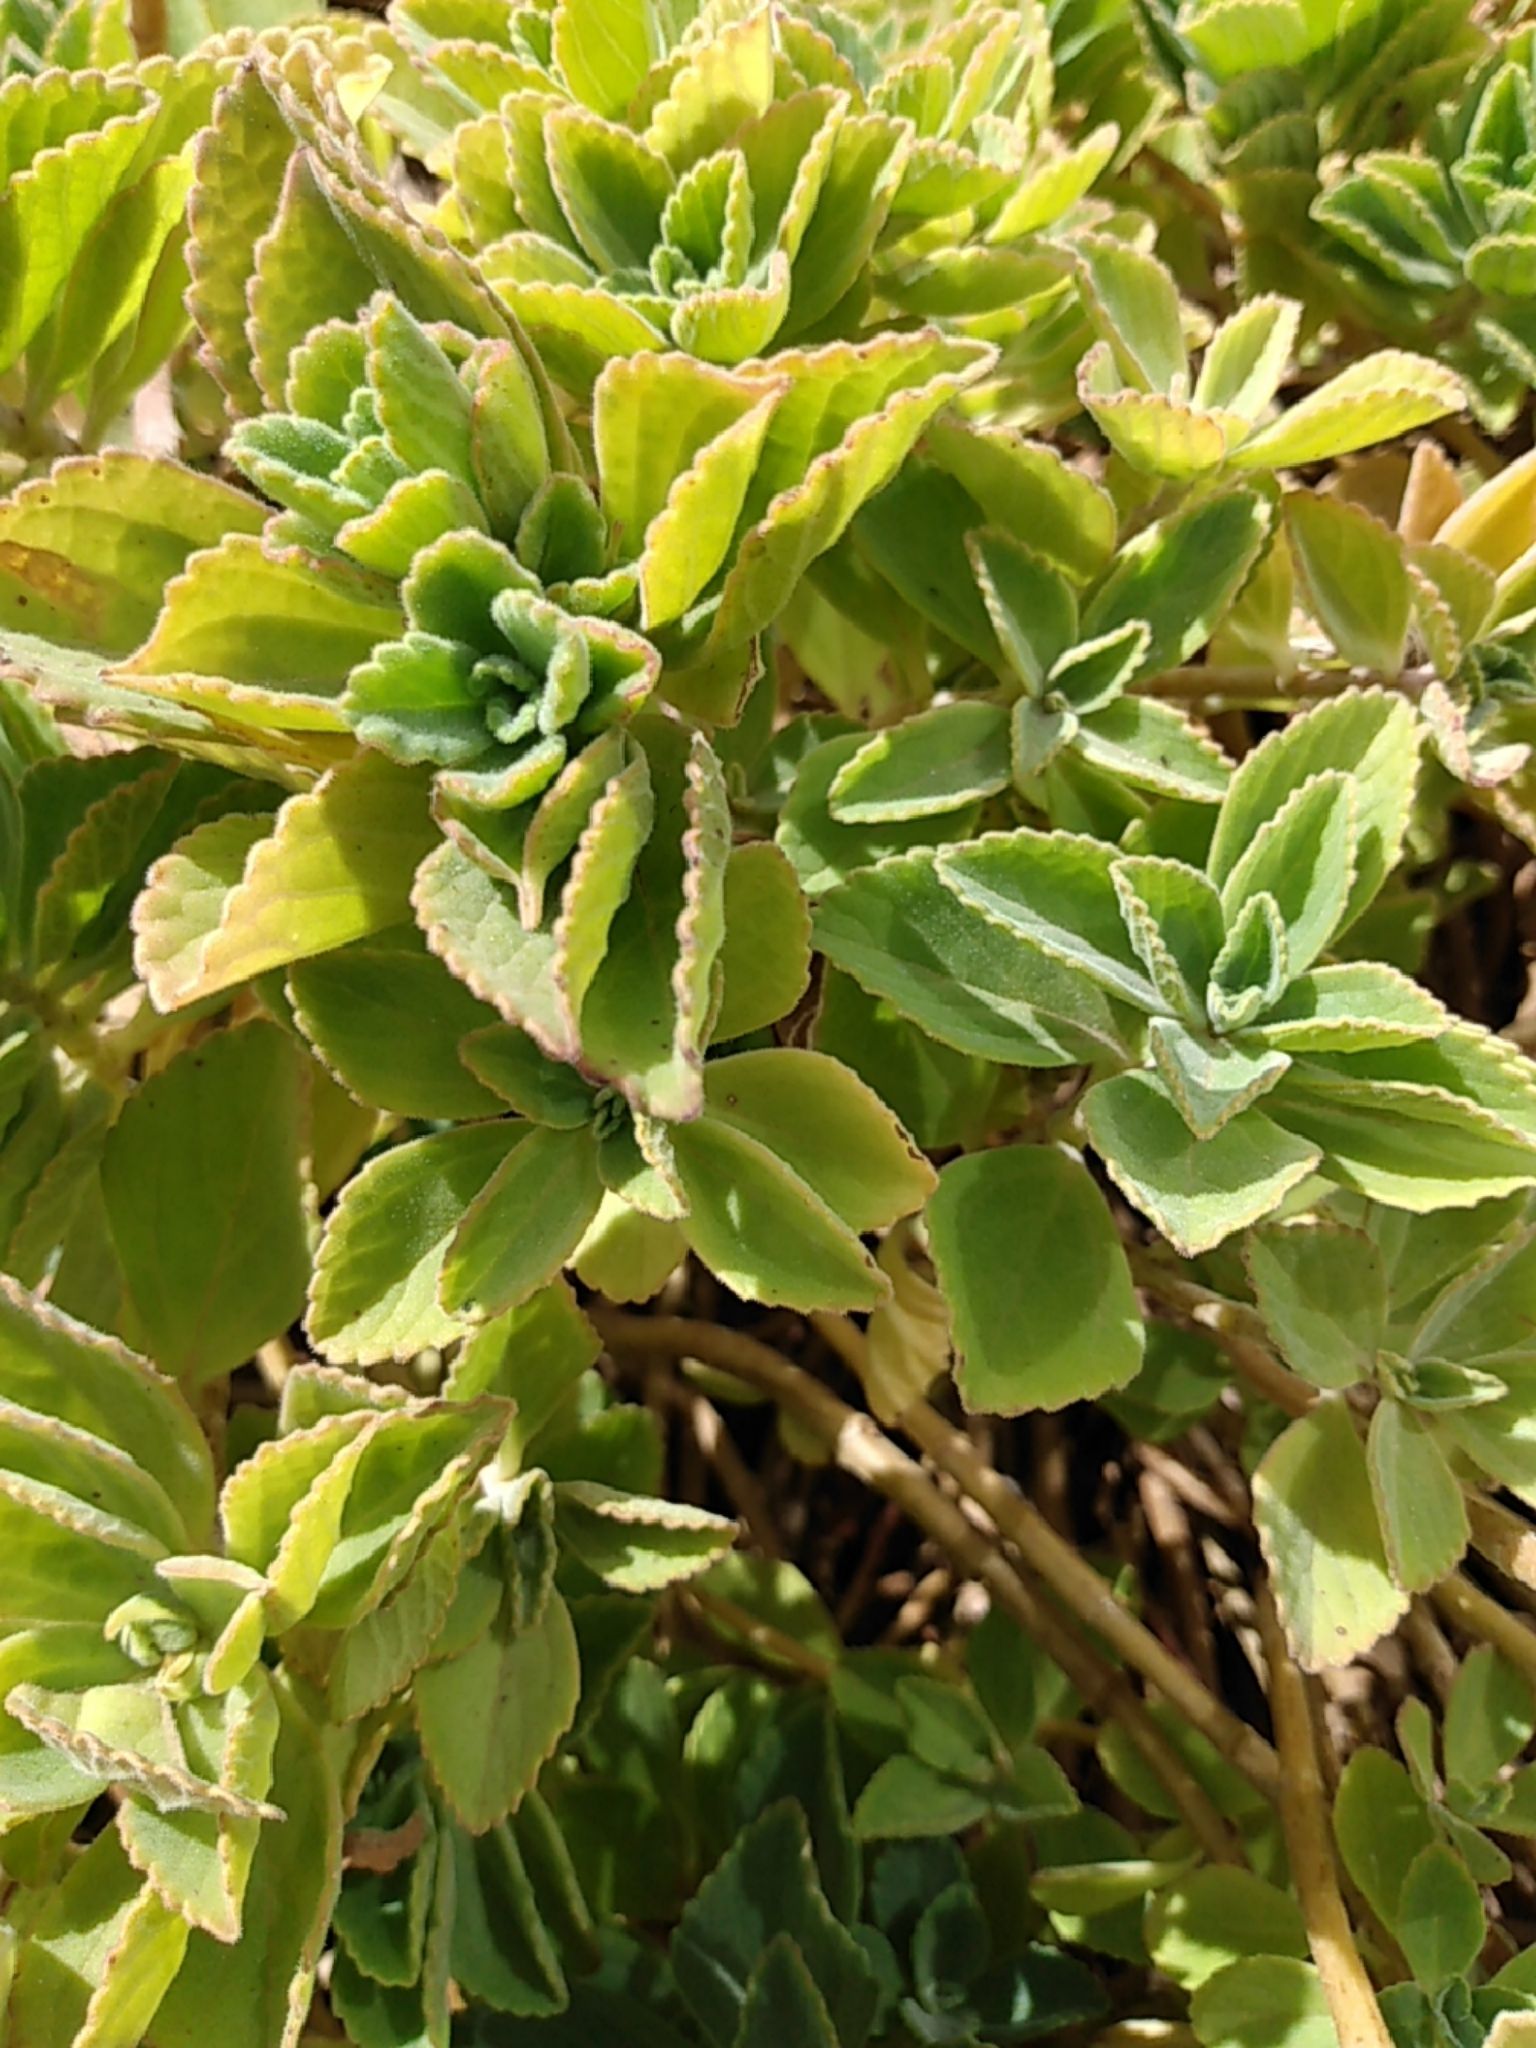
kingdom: Plantae
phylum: Tracheophyta
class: Magnoliopsida
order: Lamiales
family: Lamiaceae
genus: Coleus
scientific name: Coleus amboinicus
